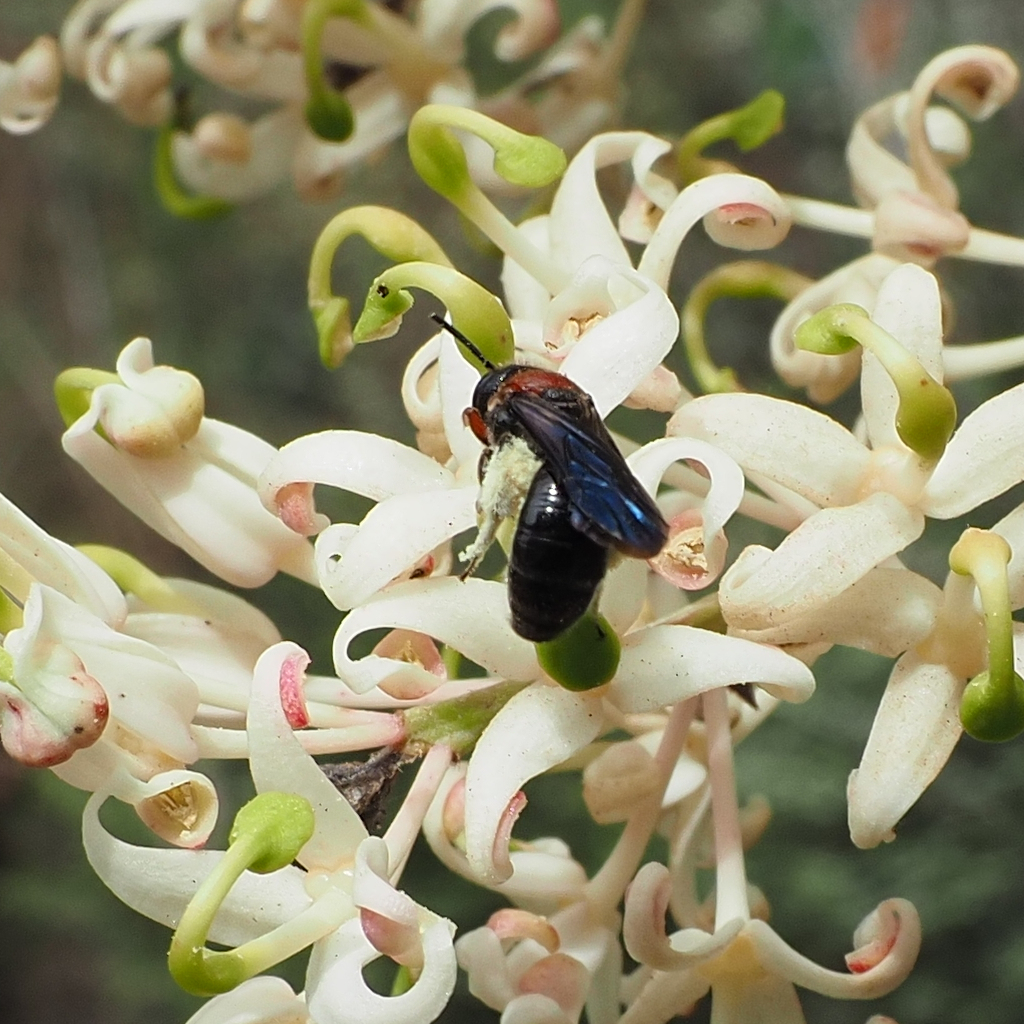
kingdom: Animalia
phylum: Arthropoda
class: Insecta
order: Hymenoptera
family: Colletidae
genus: Callomelitta
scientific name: Callomelitta picta
